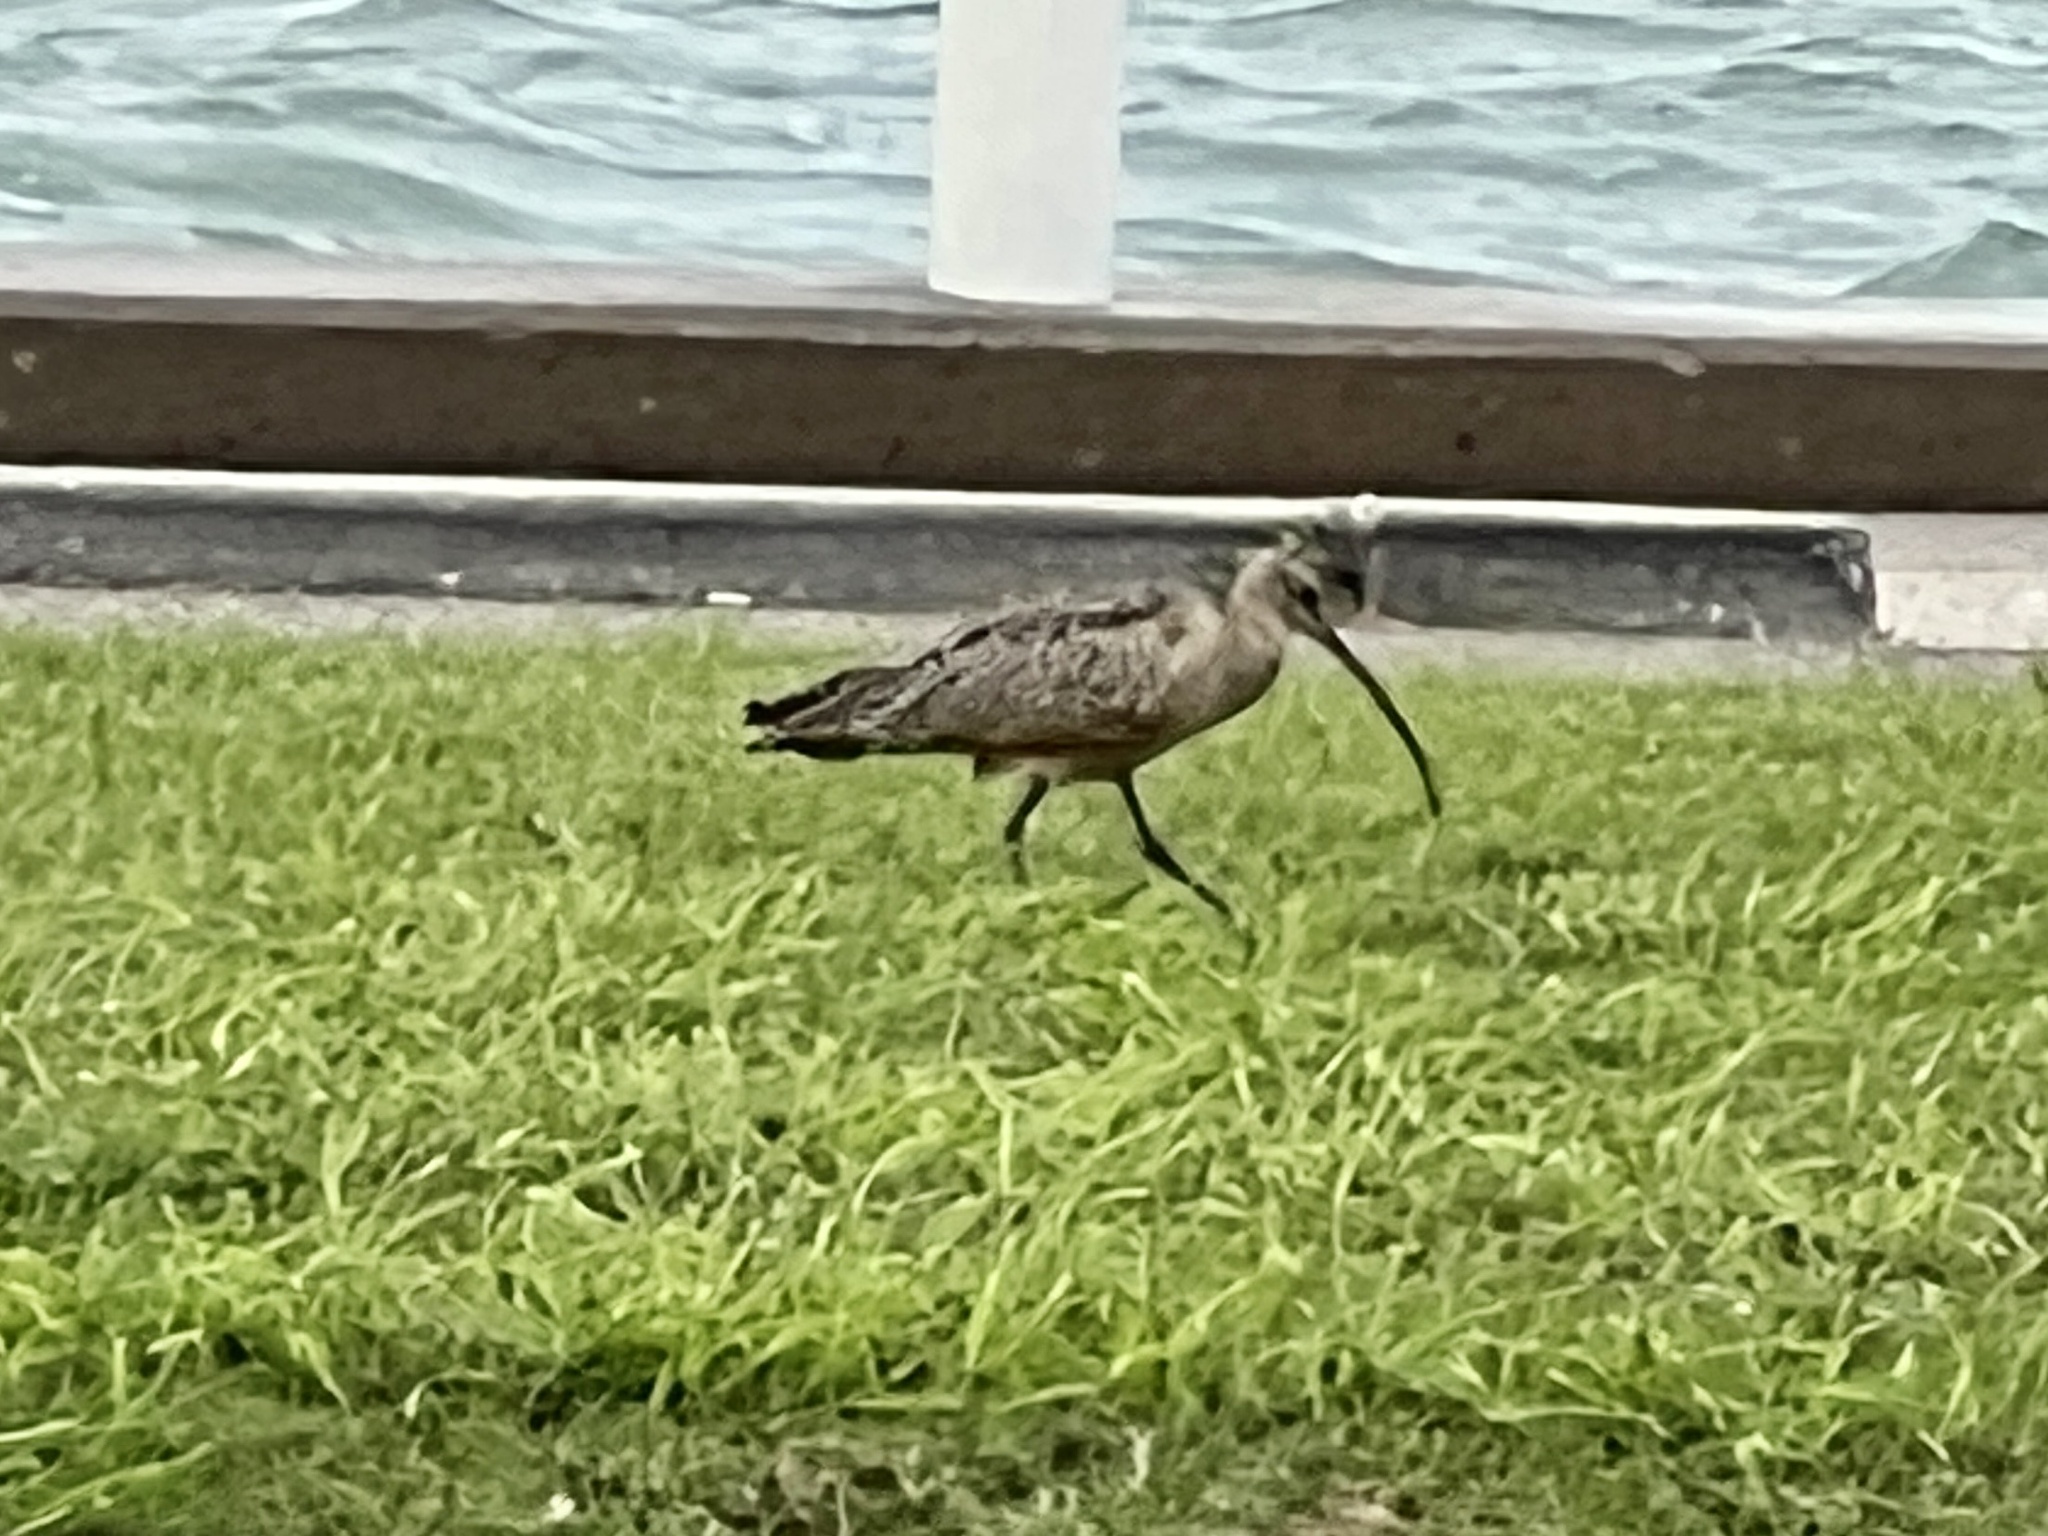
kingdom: Animalia
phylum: Chordata
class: Aves
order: Charadriiformes
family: Scolopacidae
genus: Numenius
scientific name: Numenius americanus
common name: Long-billed curlew
